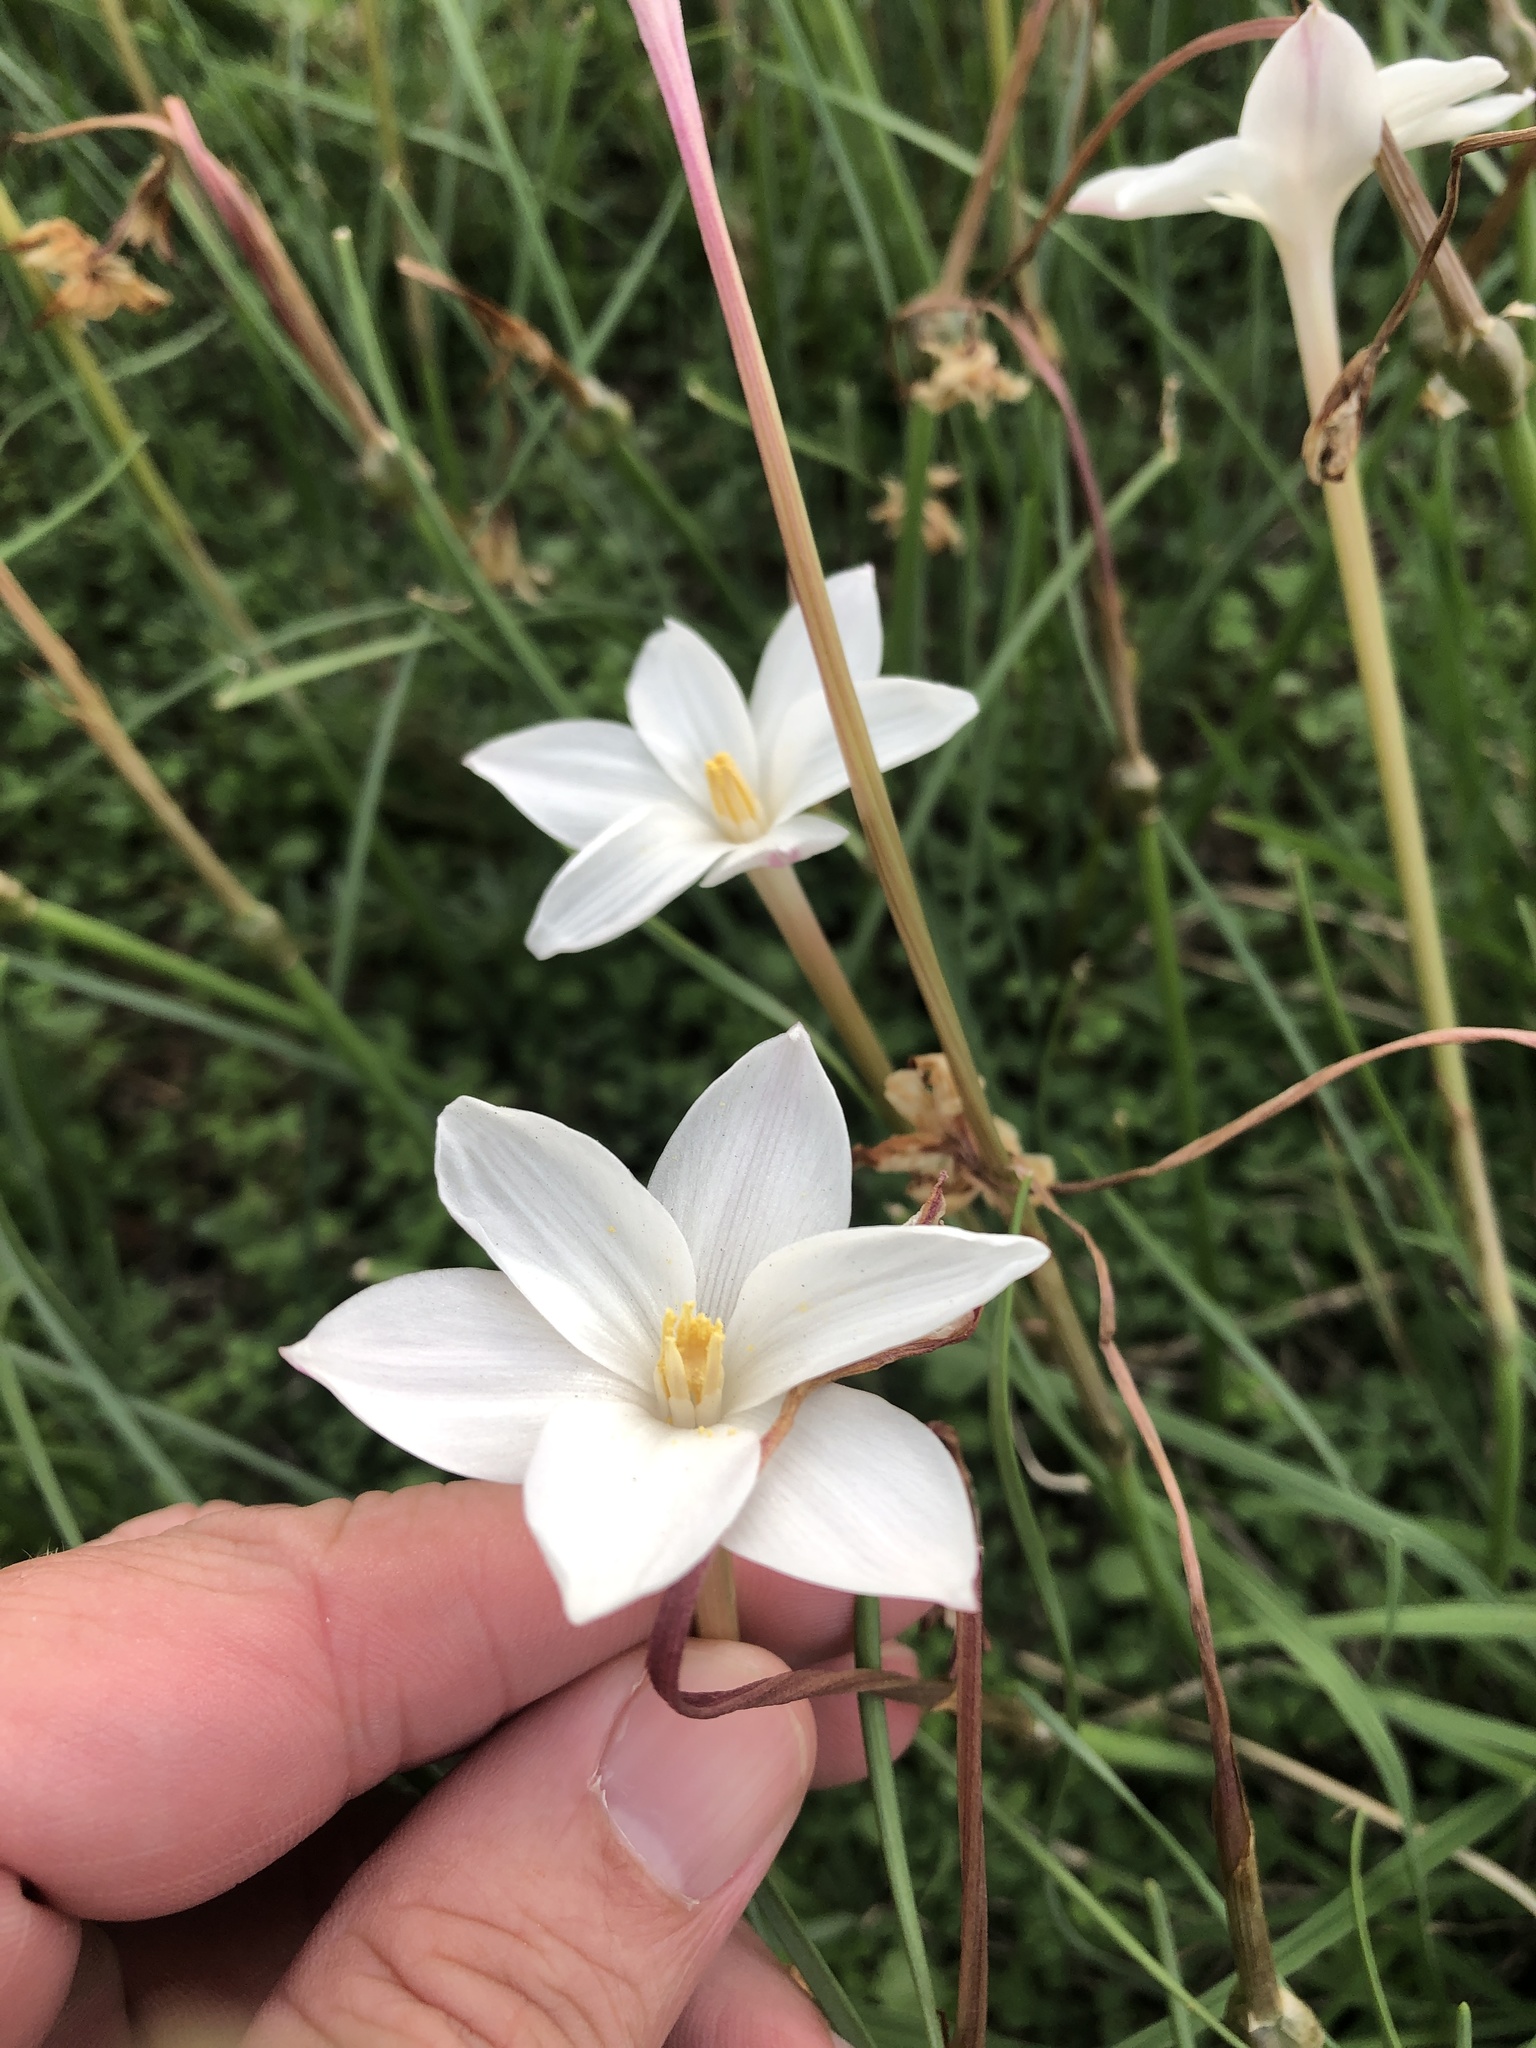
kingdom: Plantae
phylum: Tracheophyta
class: Liliopsida
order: Asparagales
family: Amaryllidaceae
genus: Zephyranthes
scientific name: Zephyranthes chlorosolen
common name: Evening rain-lily
